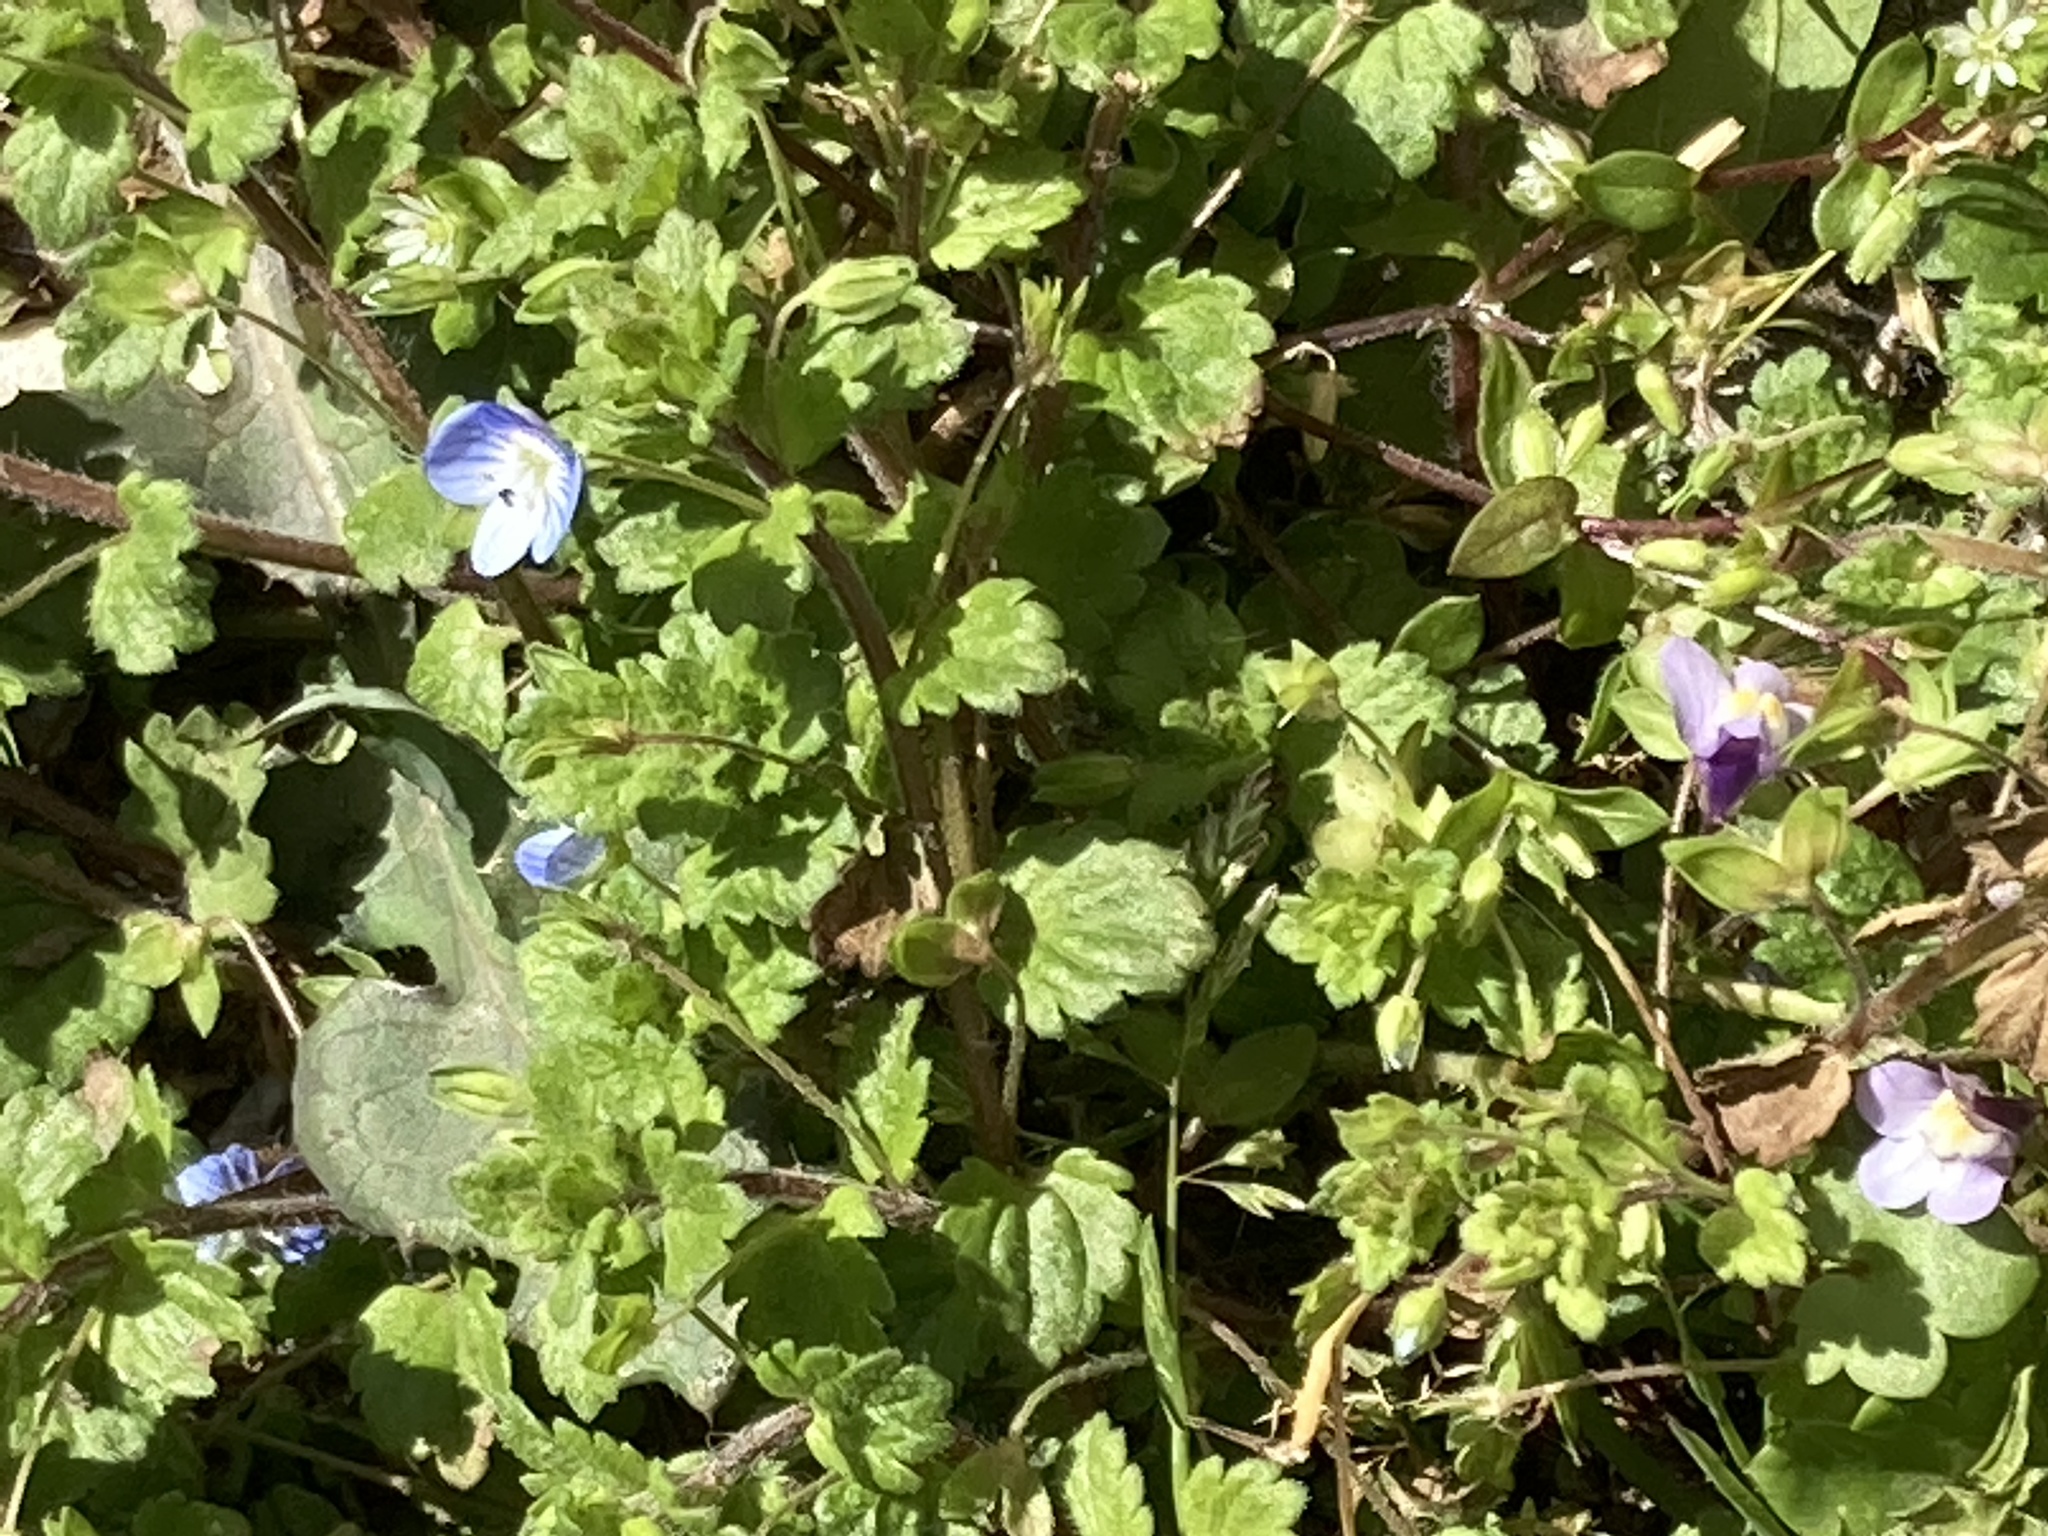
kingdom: Plantae
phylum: Tracheophyta
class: Magnoliopsida
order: Lamiales
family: Plantaginaceae
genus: Veronica
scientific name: Veronica persica
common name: Common field-speedwell
